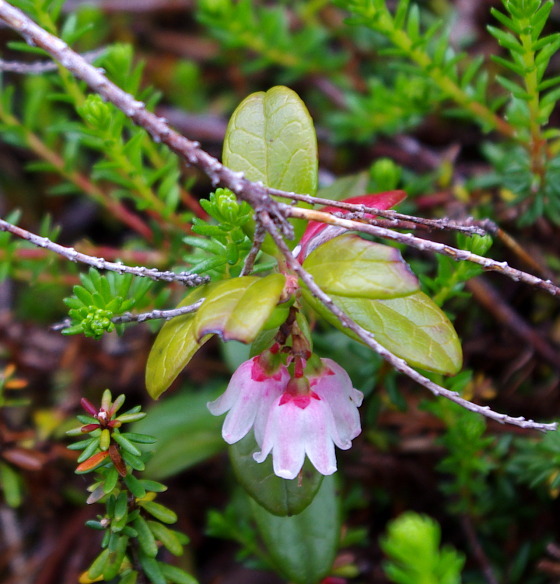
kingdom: Plantae
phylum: Tracheophyta
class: Magnoliopsida
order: Ericales
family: Ericaceae
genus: Vaccinium
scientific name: Vaccinium vitis-idaea
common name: Cowberry
